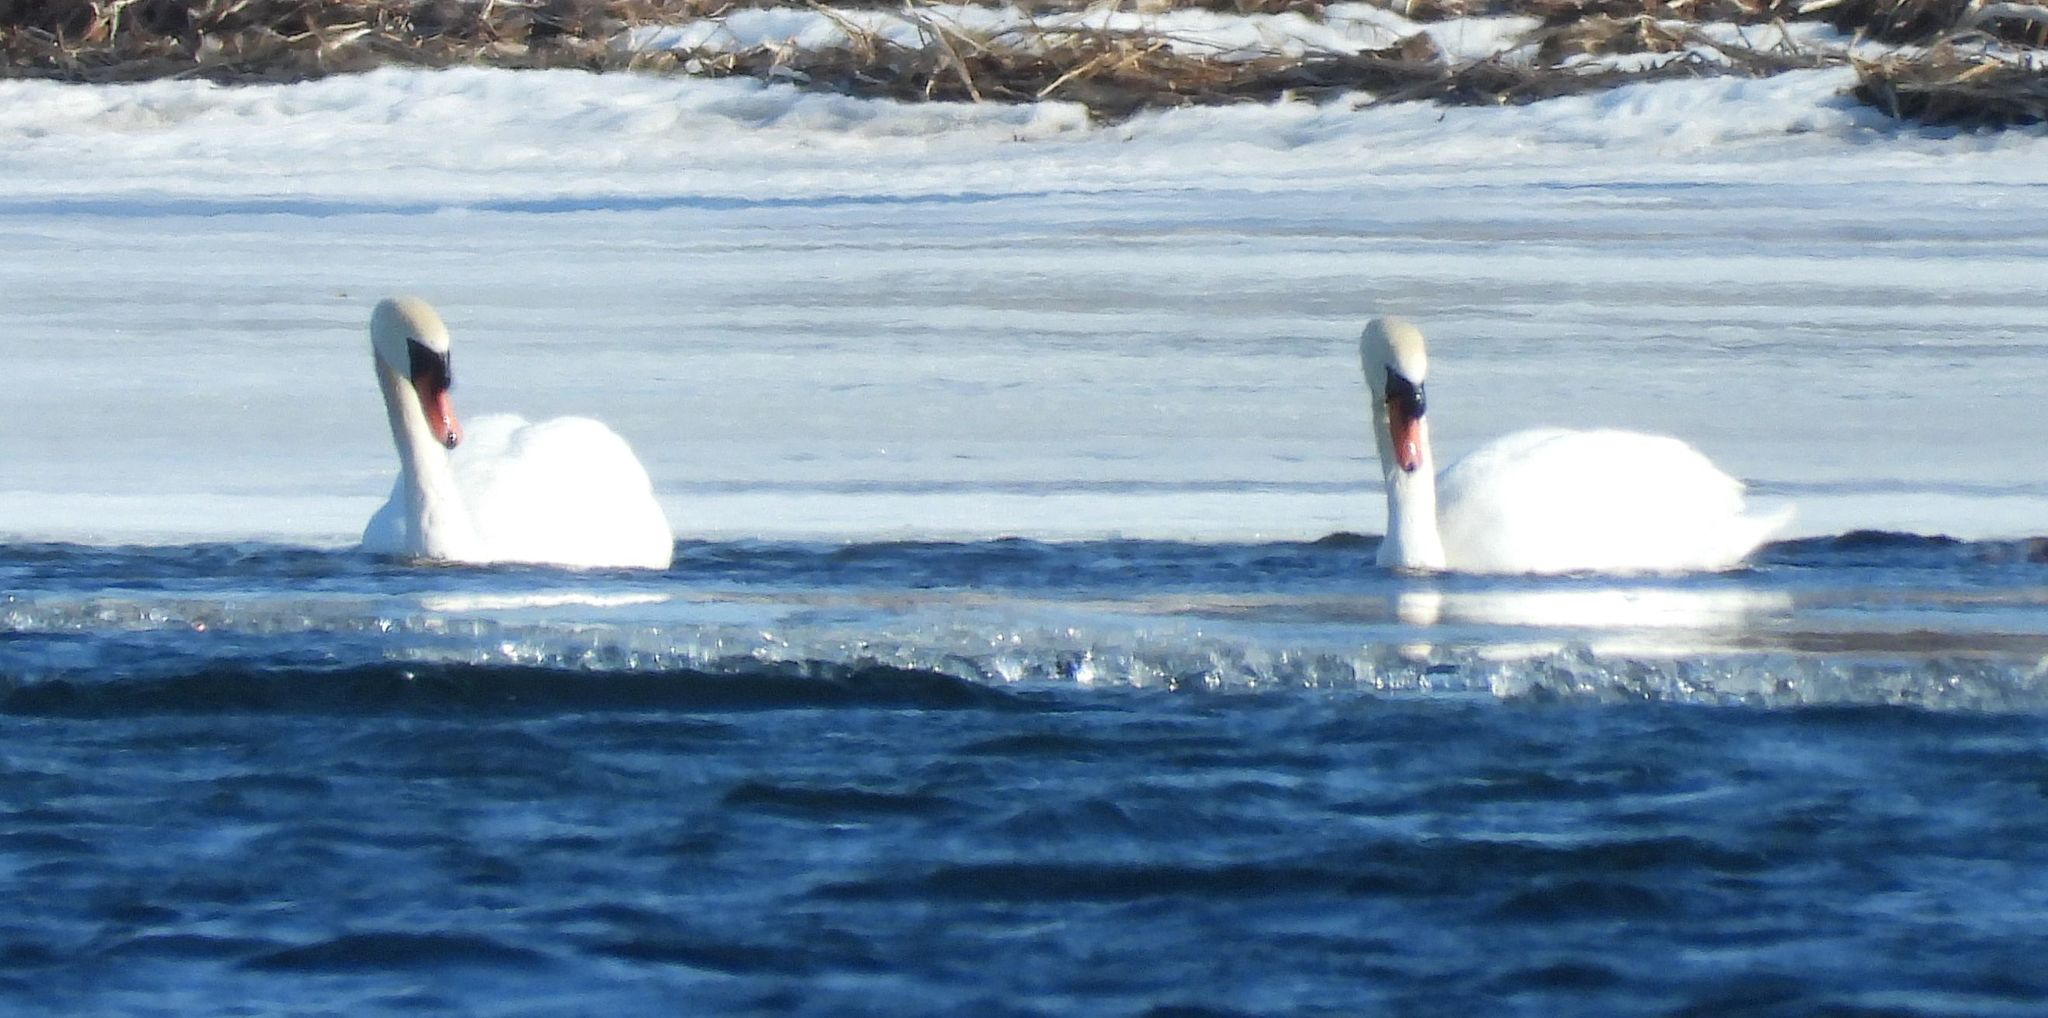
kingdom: Animalia
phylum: Chordata
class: Aves
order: Anseriformes
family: Anatidae
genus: Cygnus
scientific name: Cygnus olor
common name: Mute swan
